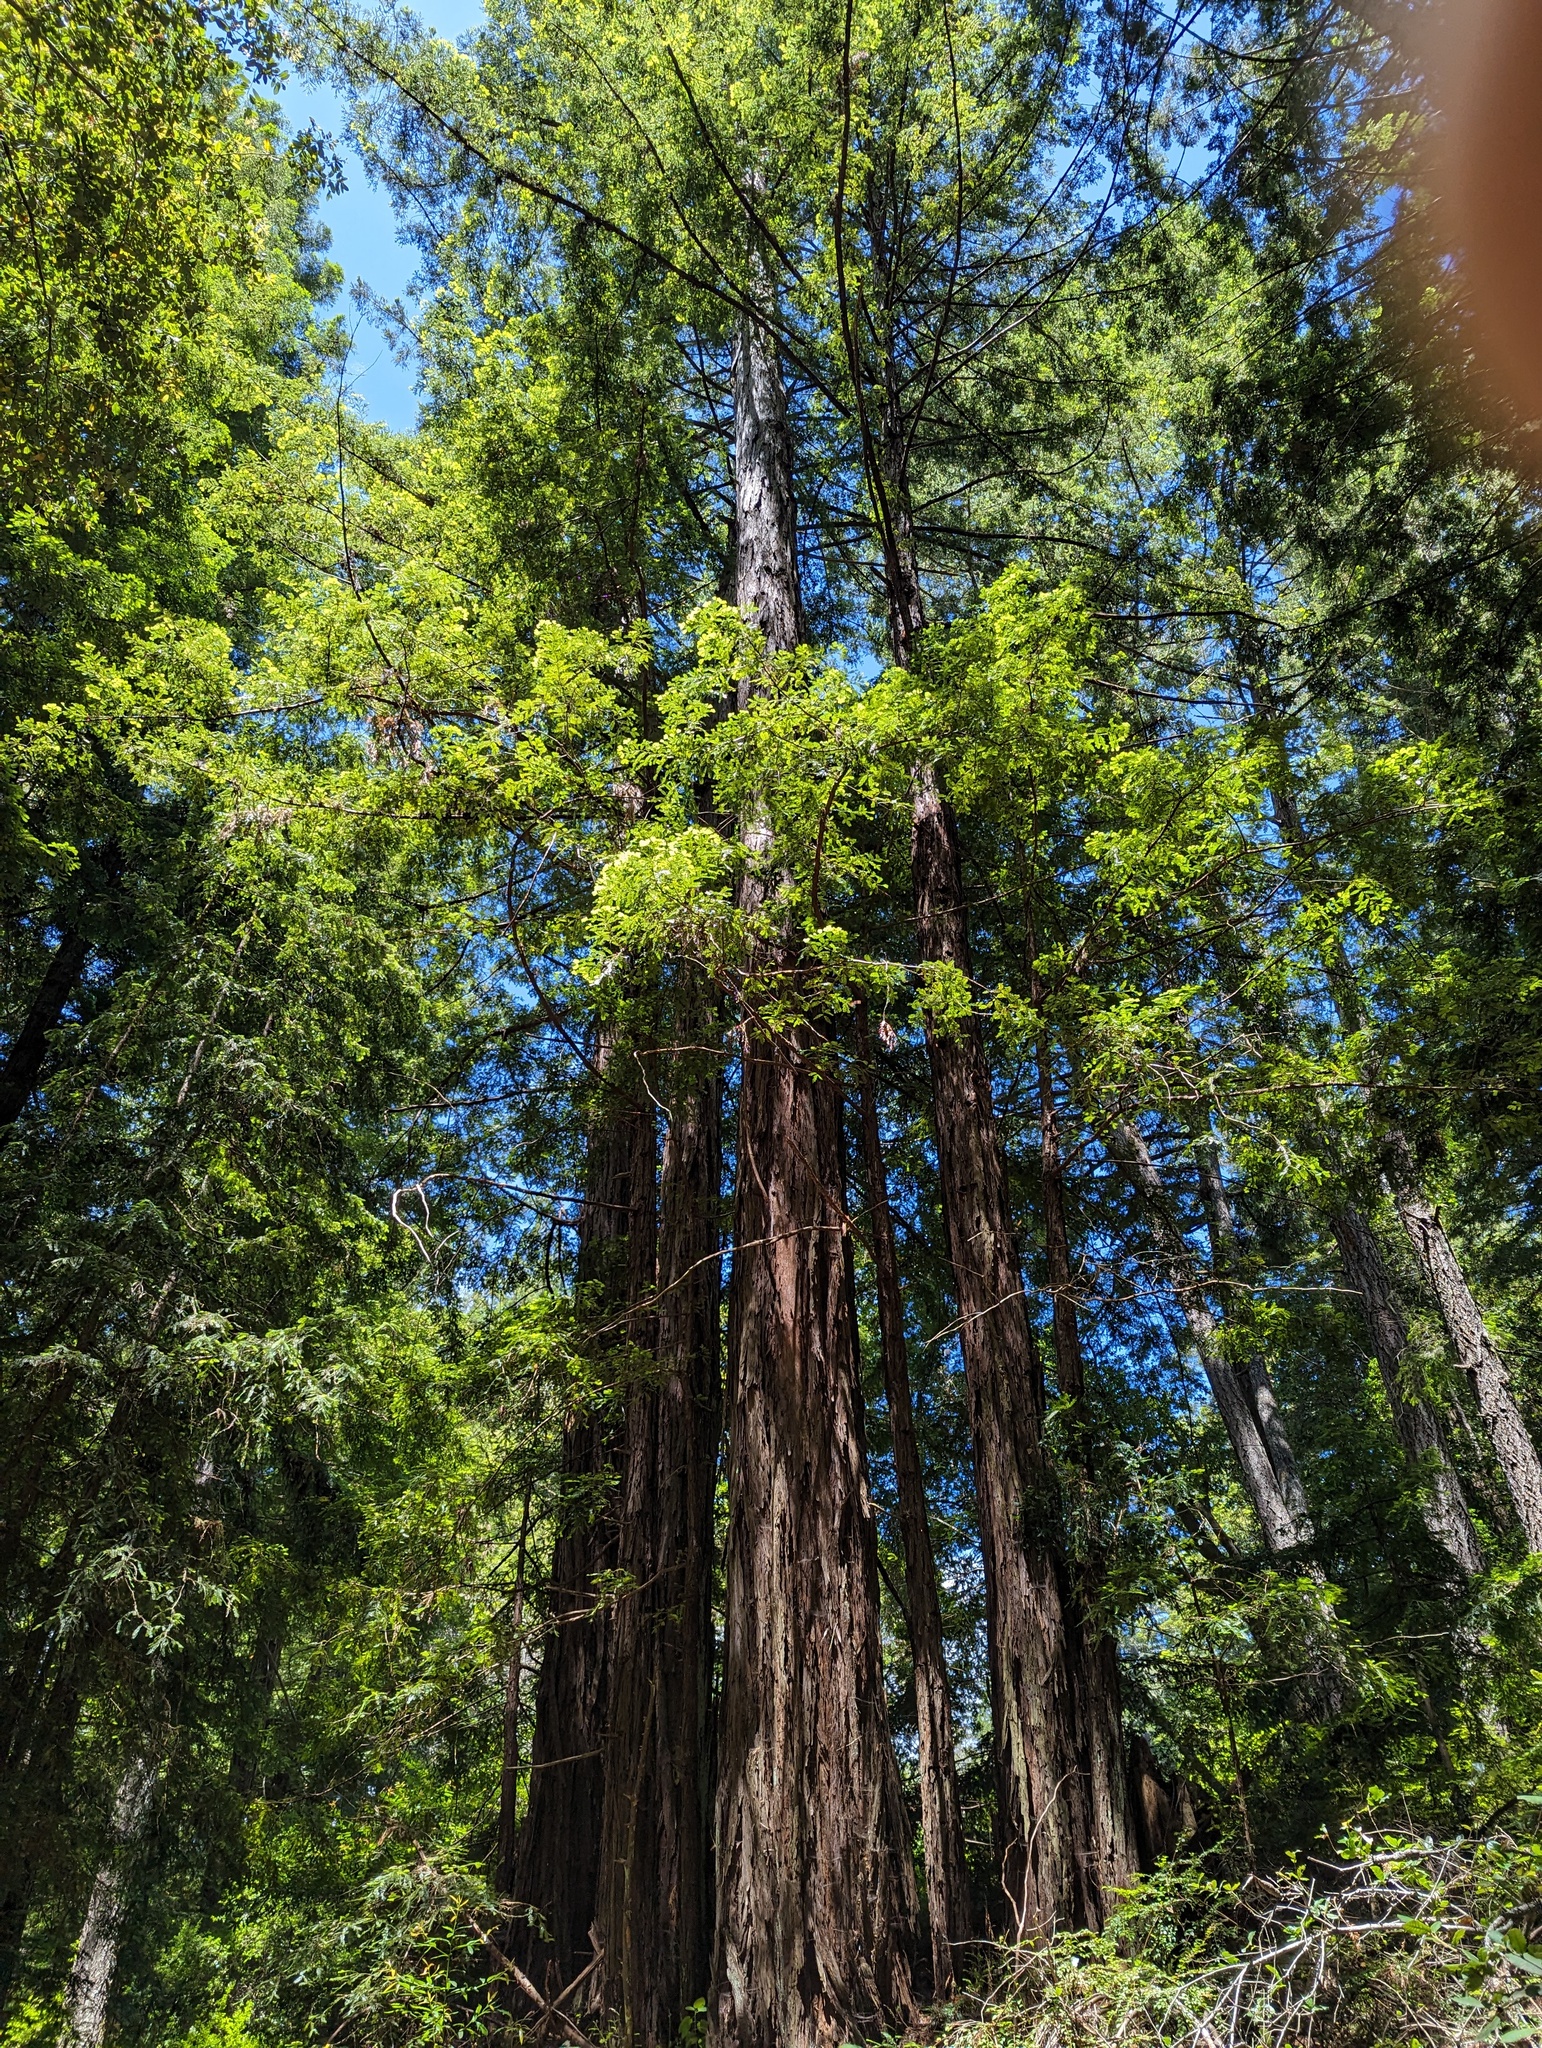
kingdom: Plantae
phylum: Tracheophyta
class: Pinopsida
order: Pinales
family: Cupressaceae
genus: Sequoia
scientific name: Sequoia sempervirens
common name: Coast redwood
